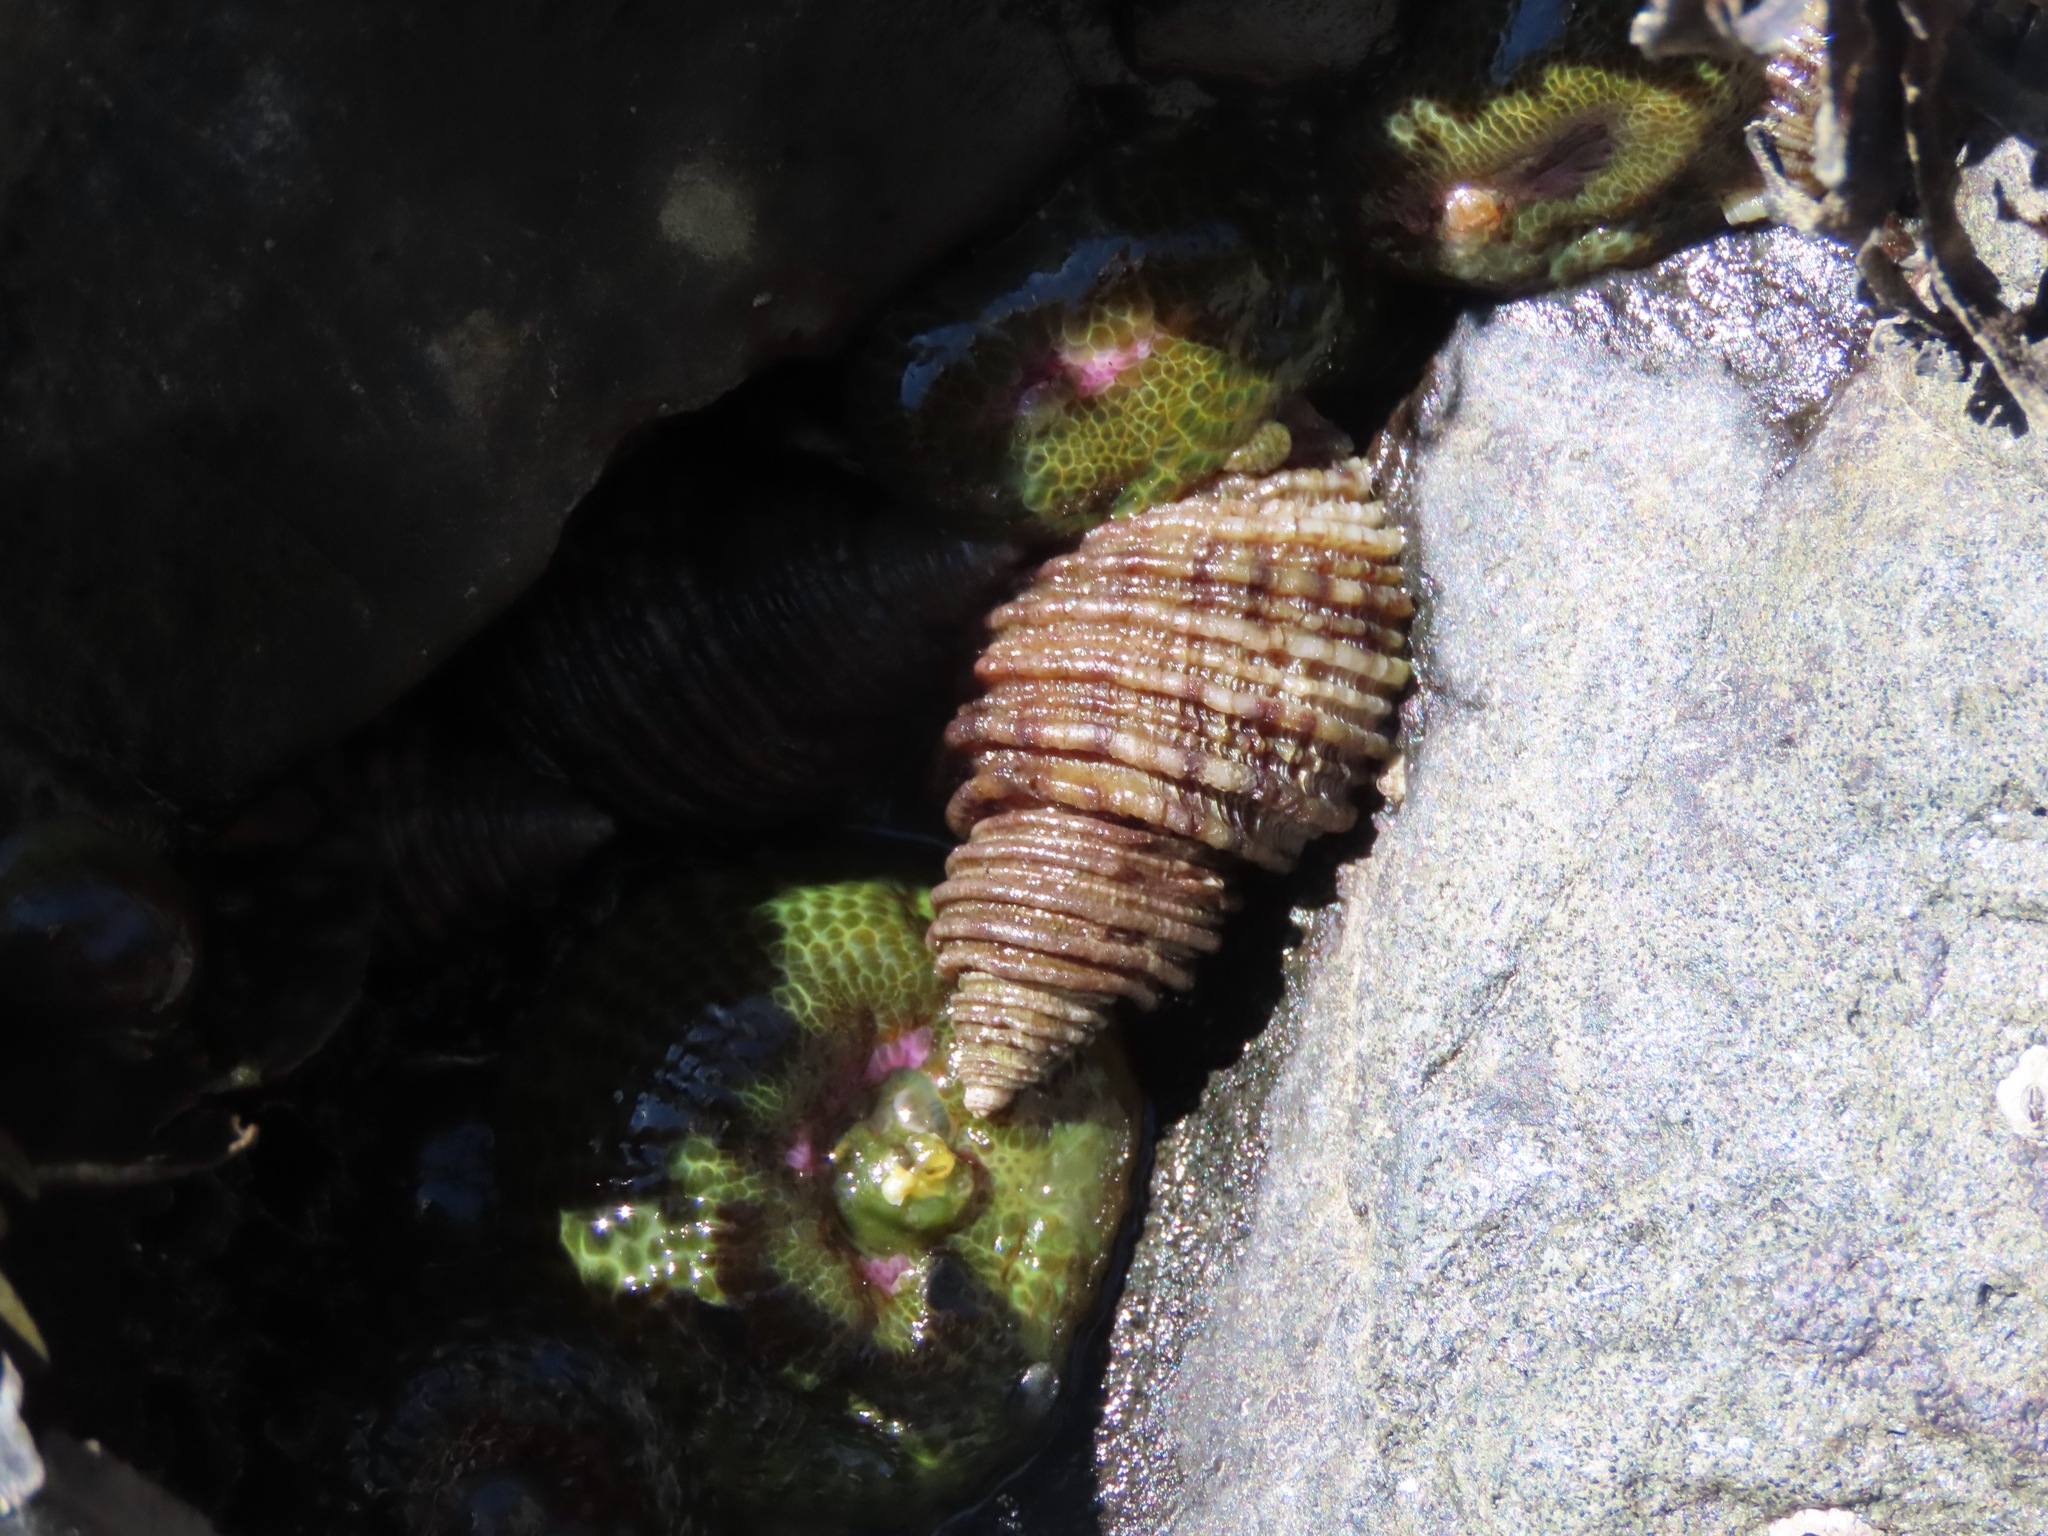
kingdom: Animalia
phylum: Mollusca
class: Gastropoda
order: Neogastropoda
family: Muricidae
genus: Nucella
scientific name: Nucella canaliculata
